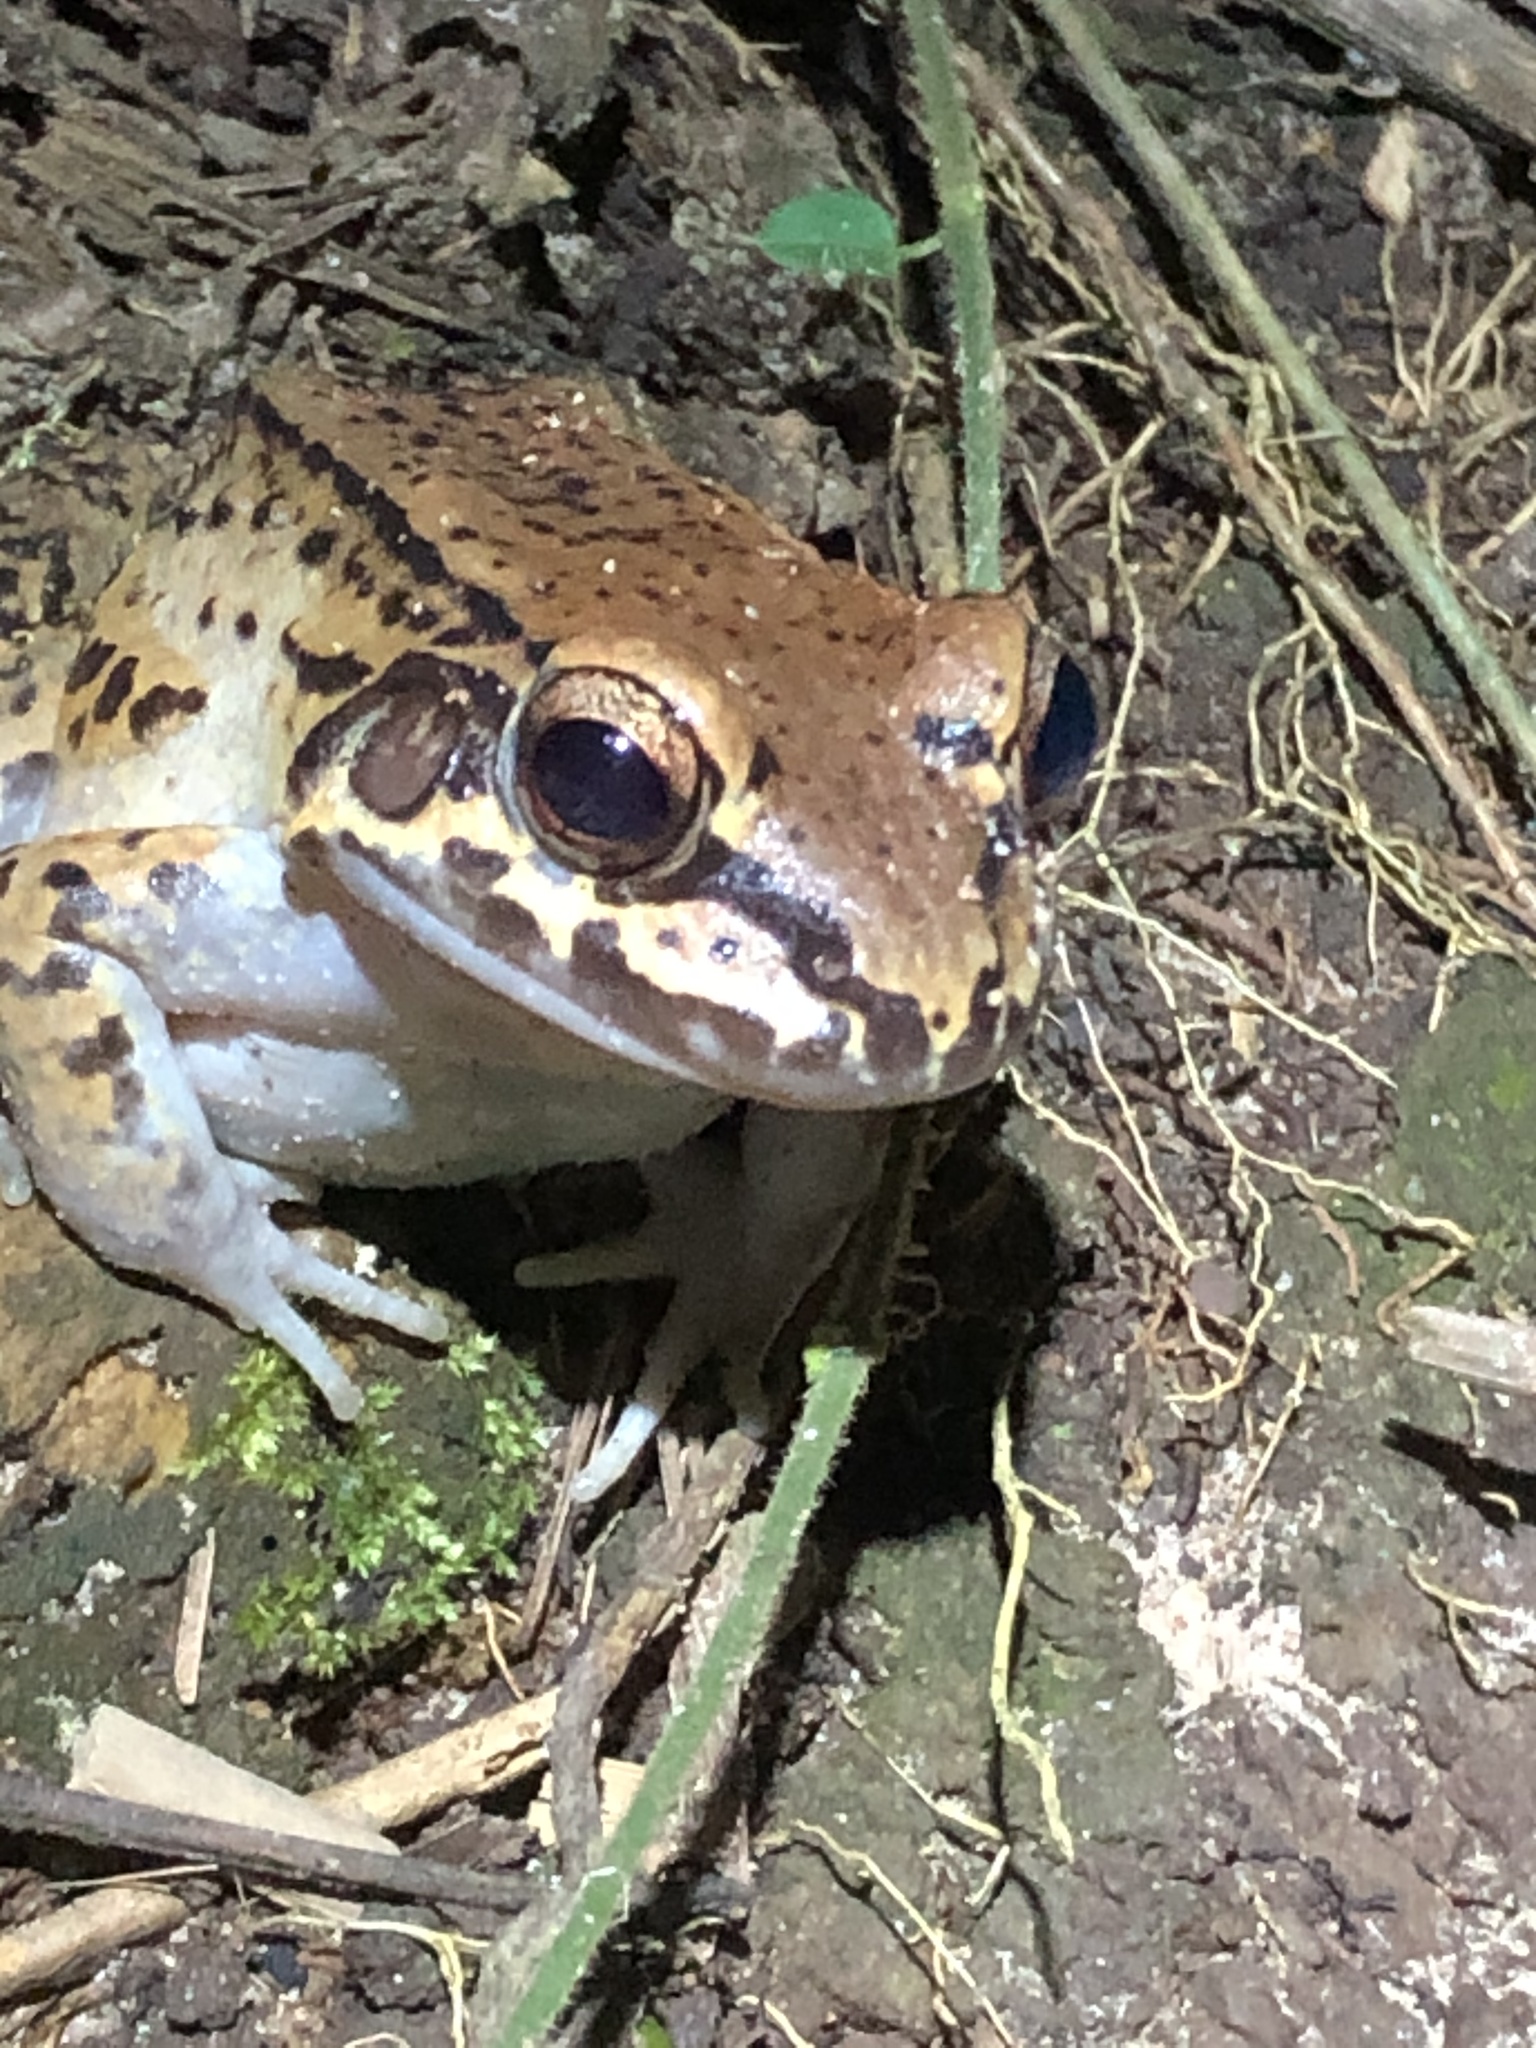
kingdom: Animalia
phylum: Chordata
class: Amphibia
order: Anura
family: Leptodactylidae
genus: Leptodactylus
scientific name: Leptodactylus rhodonotus
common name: Peru white-lipped frog
